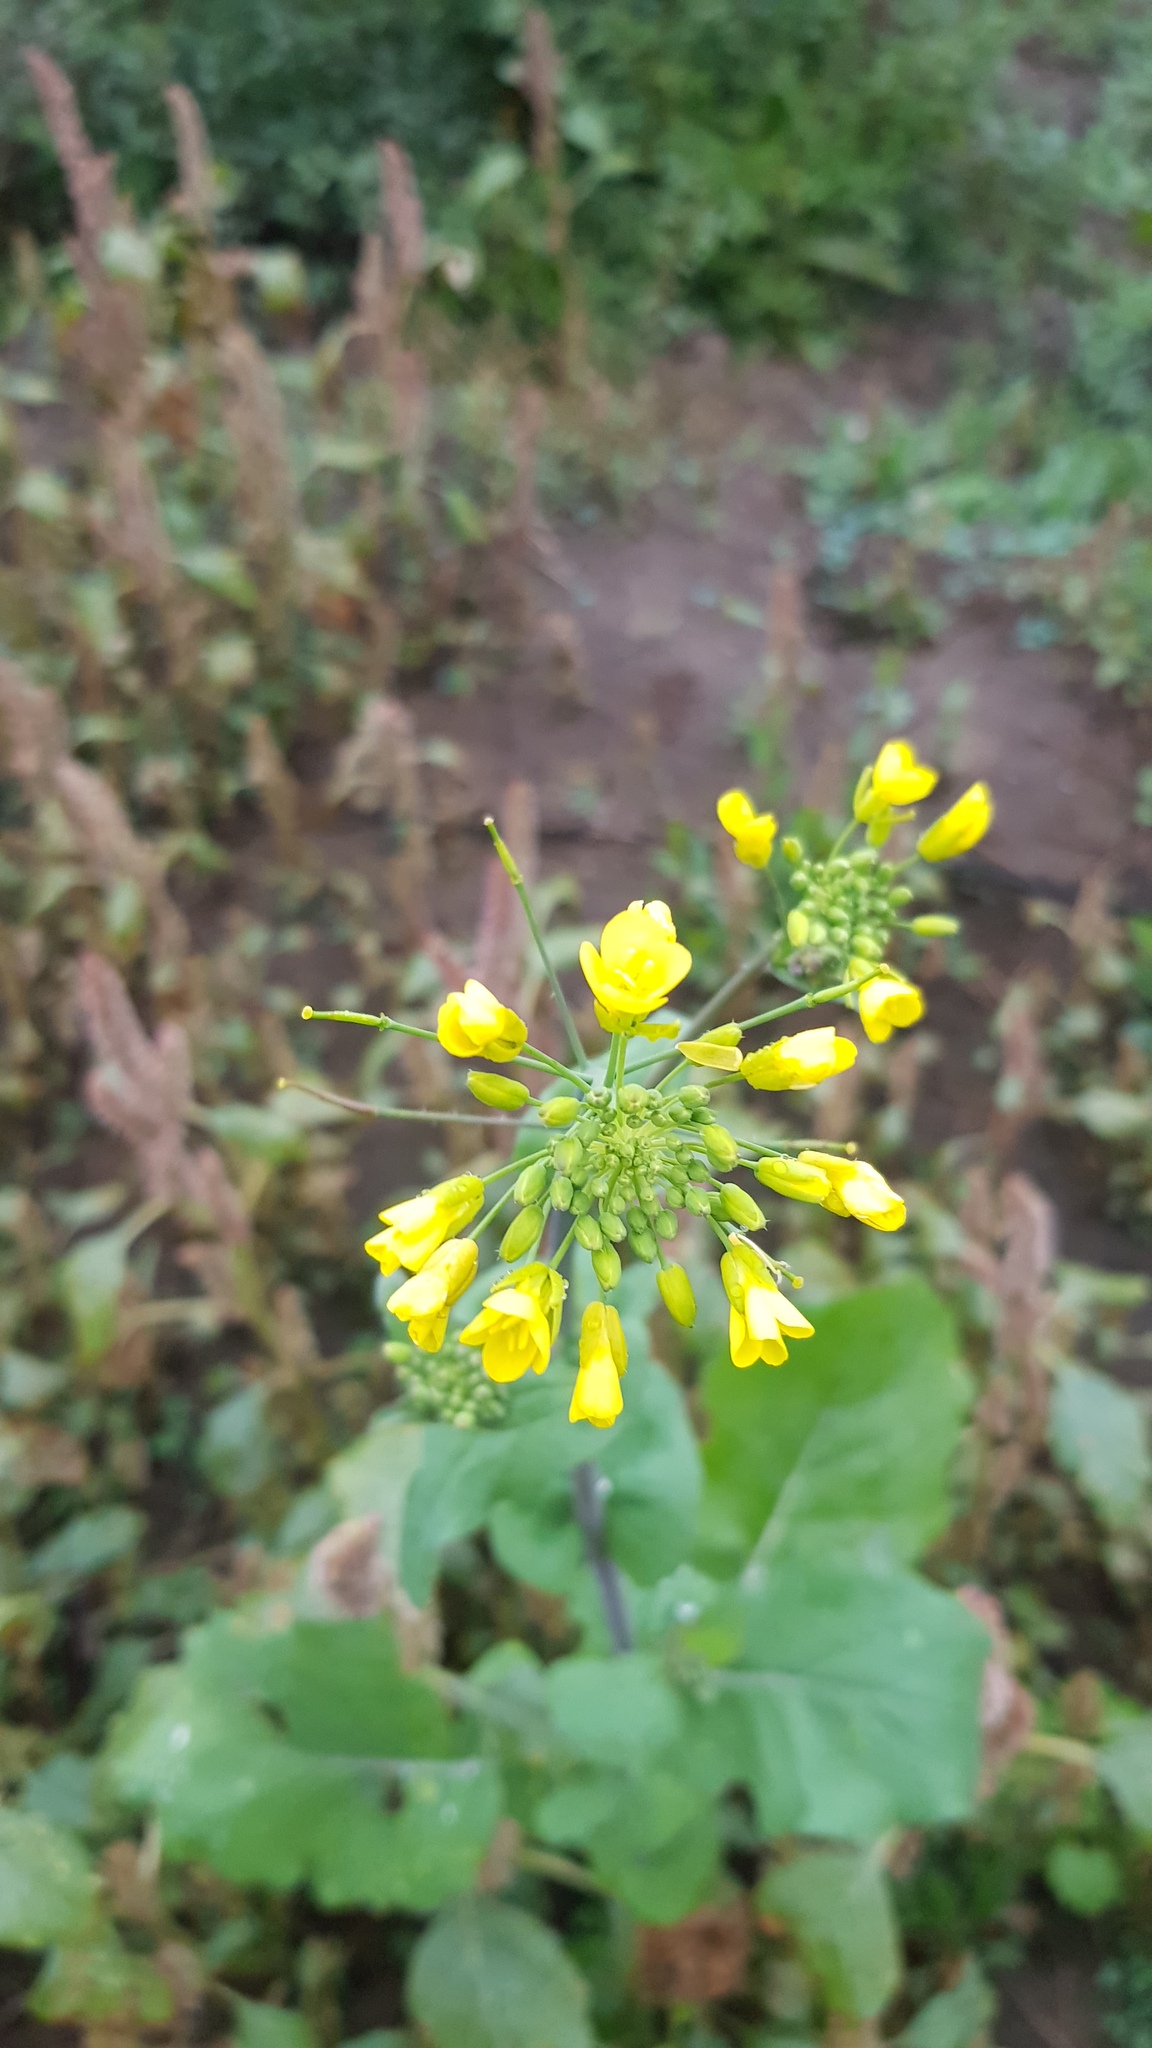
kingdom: Plantae
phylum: Tracheophyta
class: Magnoliopsida
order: Brassicales
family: Brassicaceae
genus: Brassica
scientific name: Brassica rapa
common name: Field mustard
